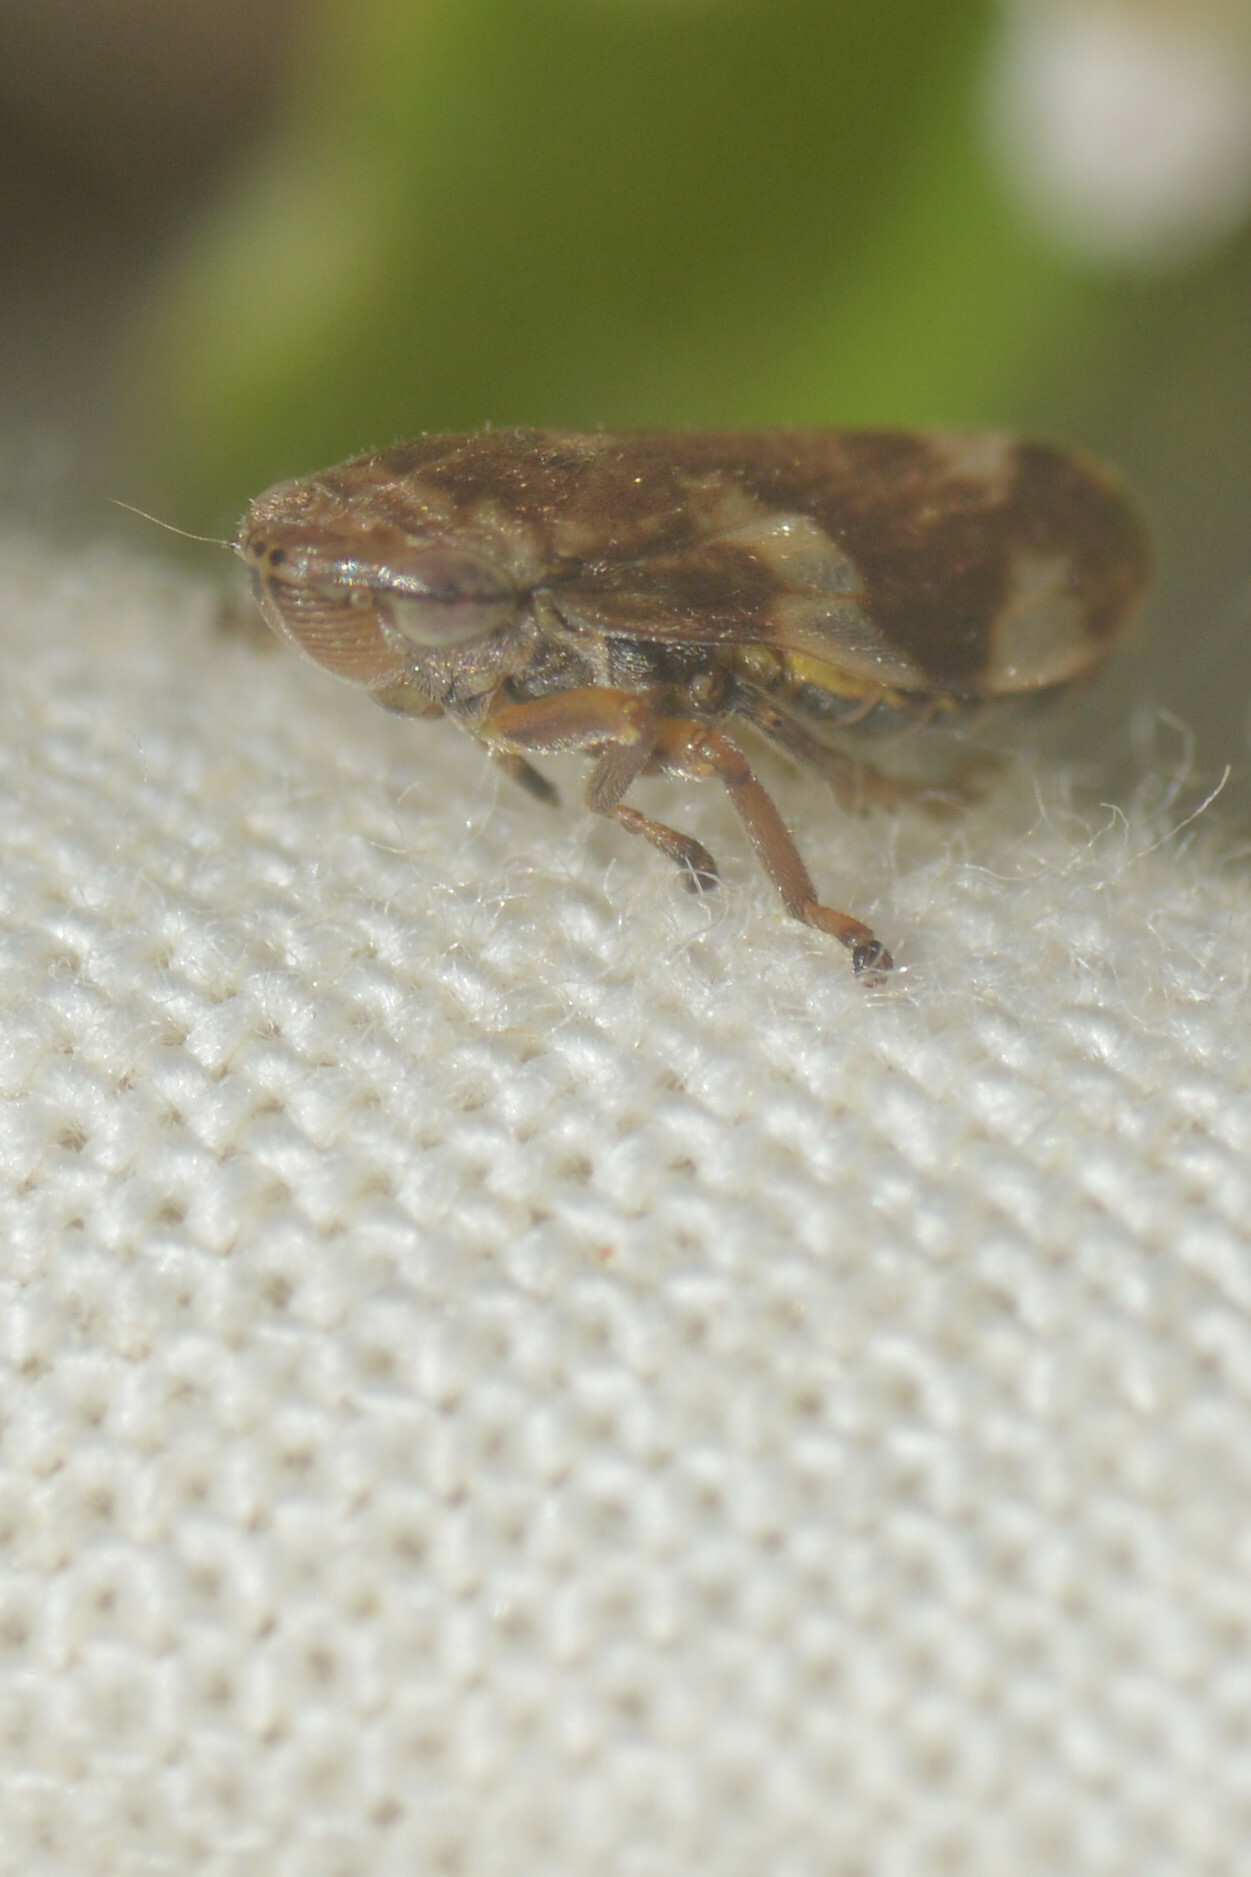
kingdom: Animalia
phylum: Arthropoda
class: Insecta
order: Hemiptera
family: Aphrophoridae
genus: Philaenus
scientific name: Philaenus spumarius
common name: Meadow spittlebug
